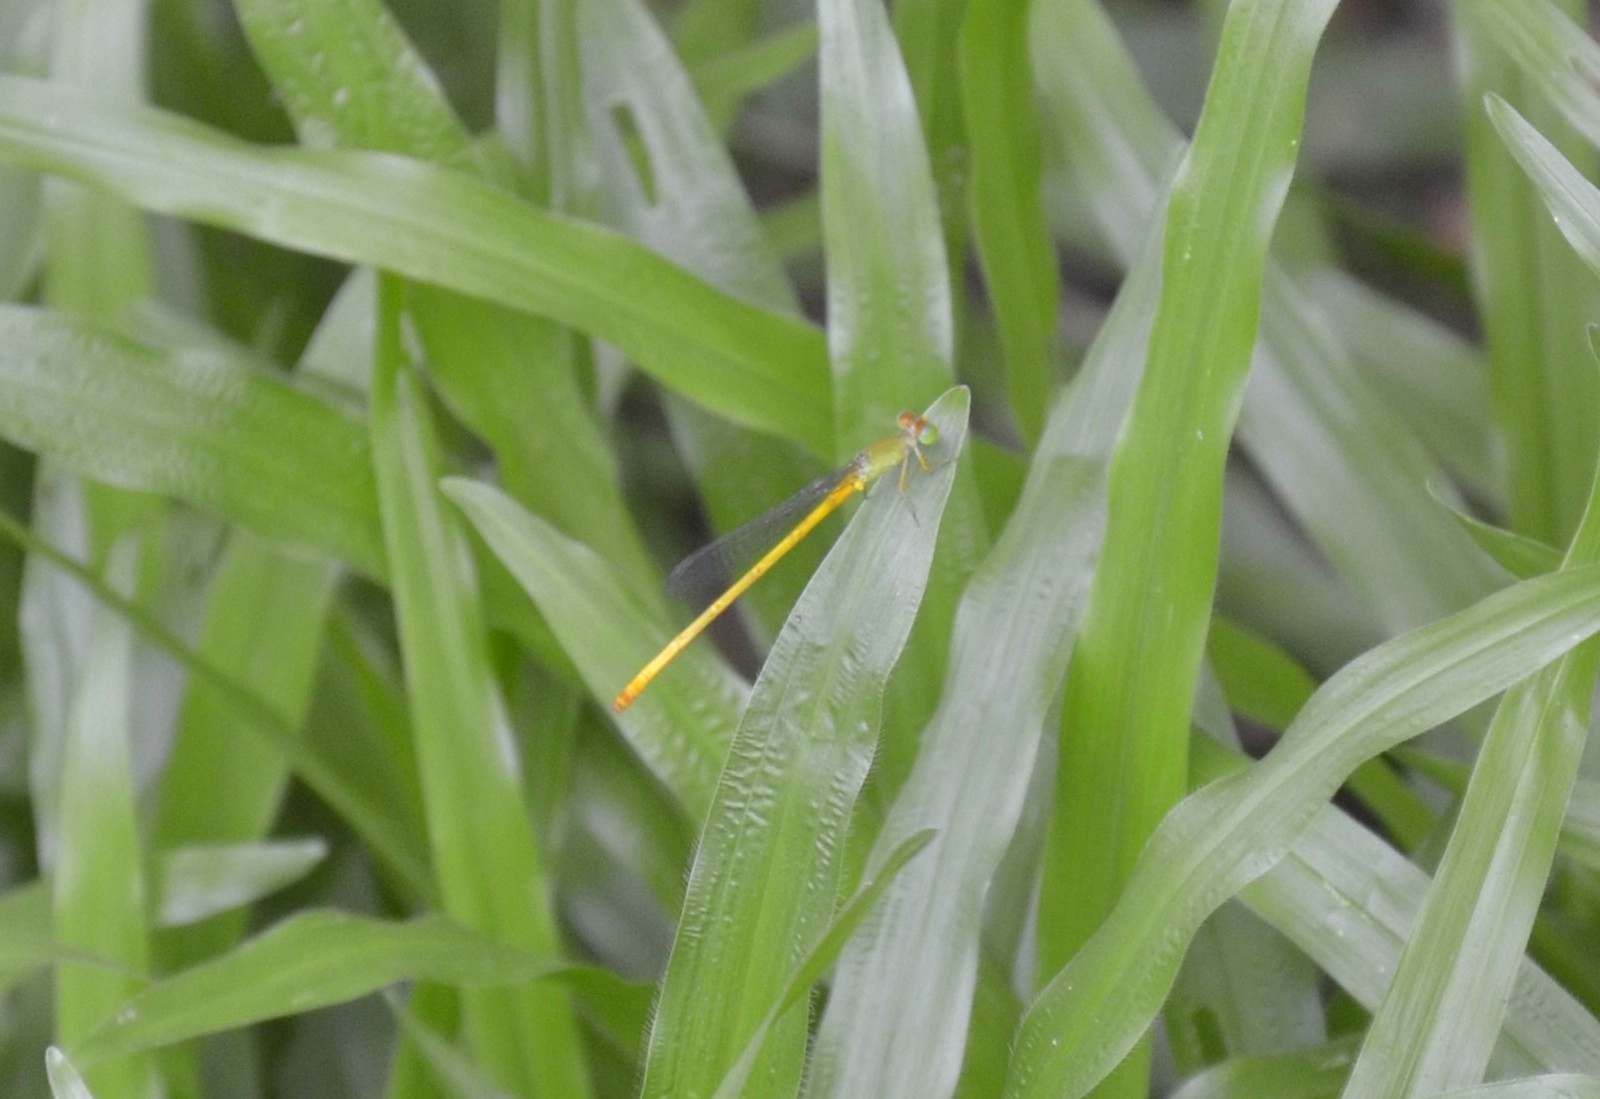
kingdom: Animalia
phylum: Arthropoda
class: Insecta
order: Odonata
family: Coenagrionidae
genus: Ceriagrion
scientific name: Ceriagrion coromandelianum
